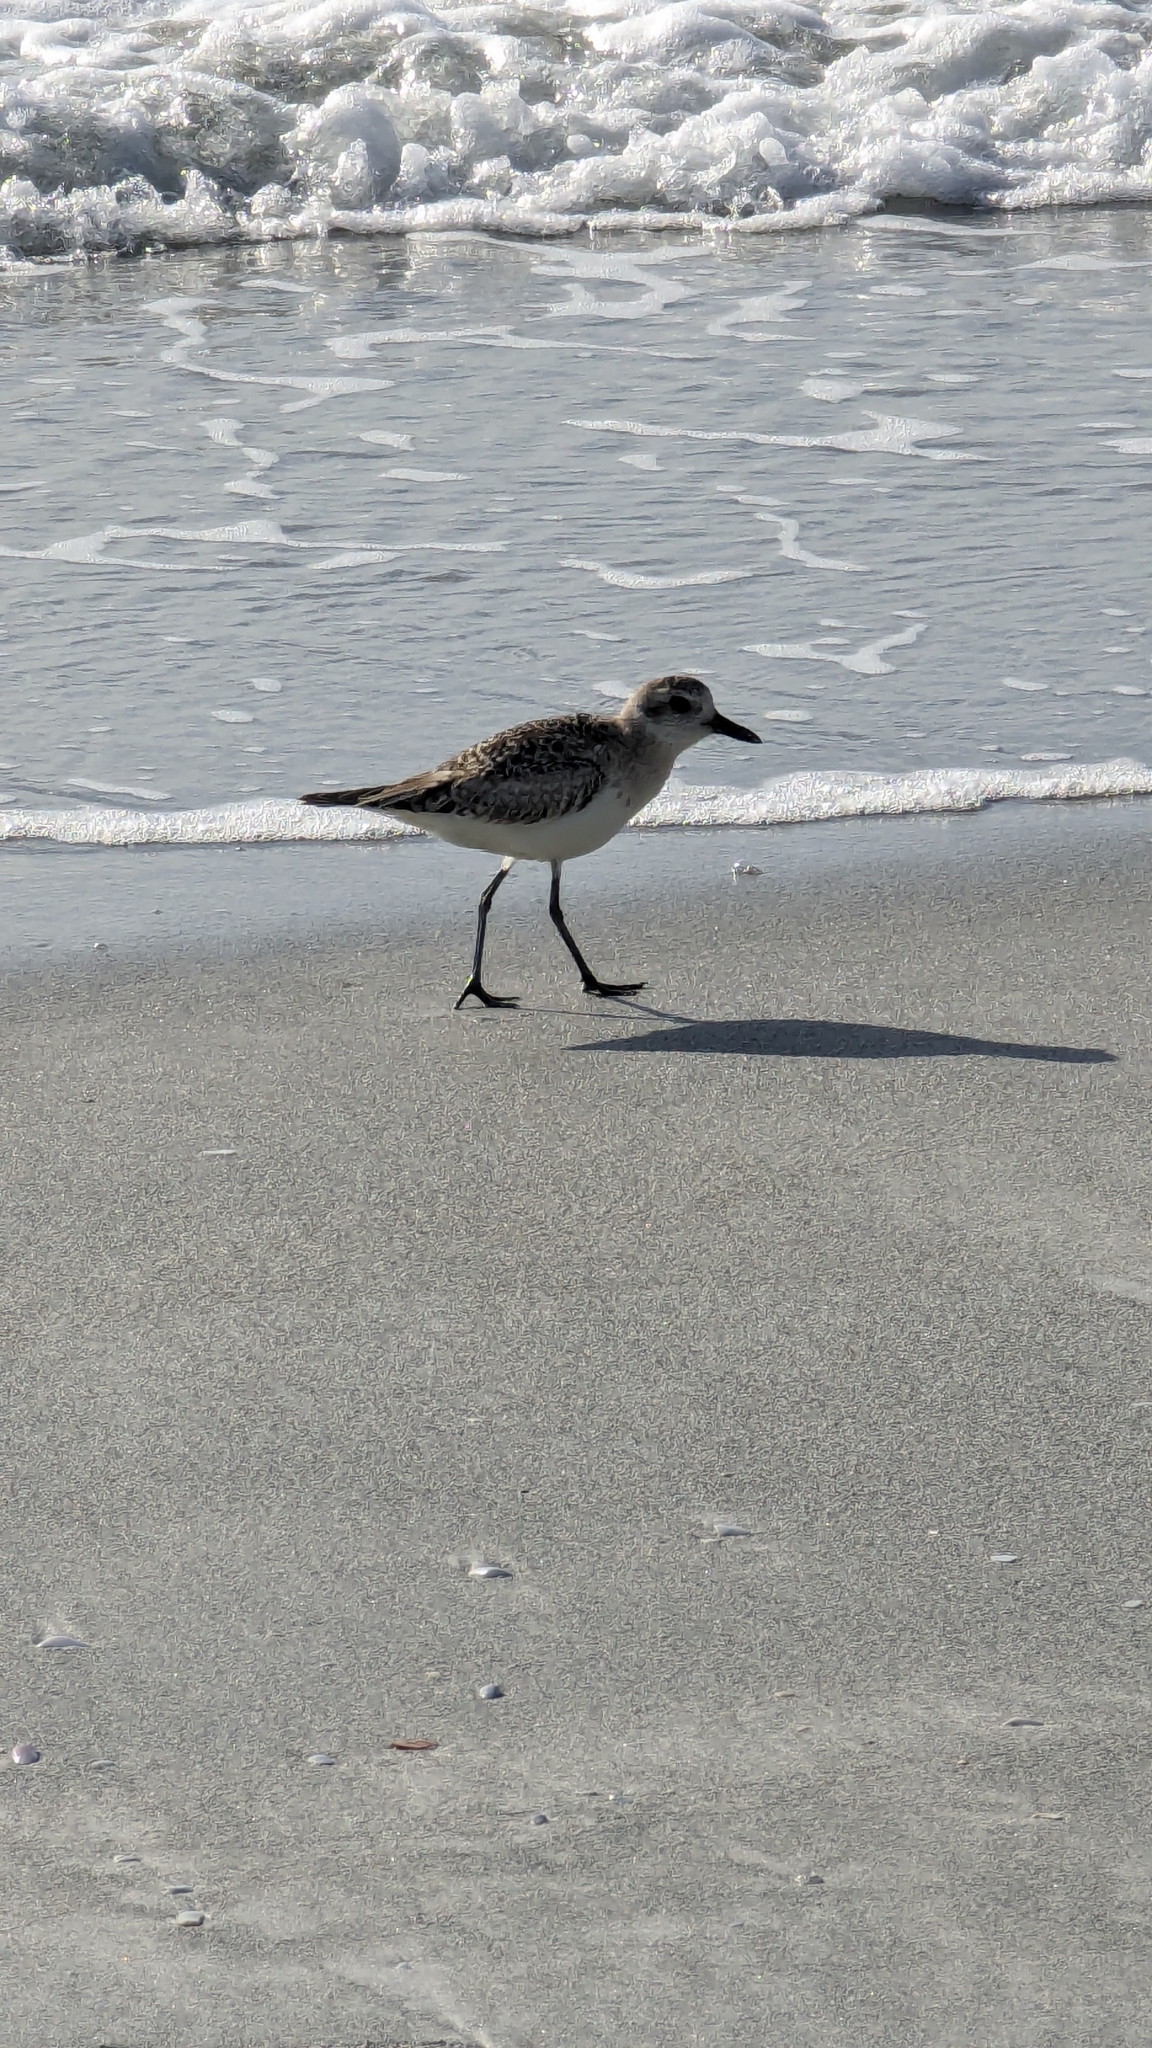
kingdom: Animalia
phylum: Chordata
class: Aves
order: Charadriiformes
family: Charadriidae
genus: Pluvialis
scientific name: Pluvialis squatarola
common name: Grey plover
